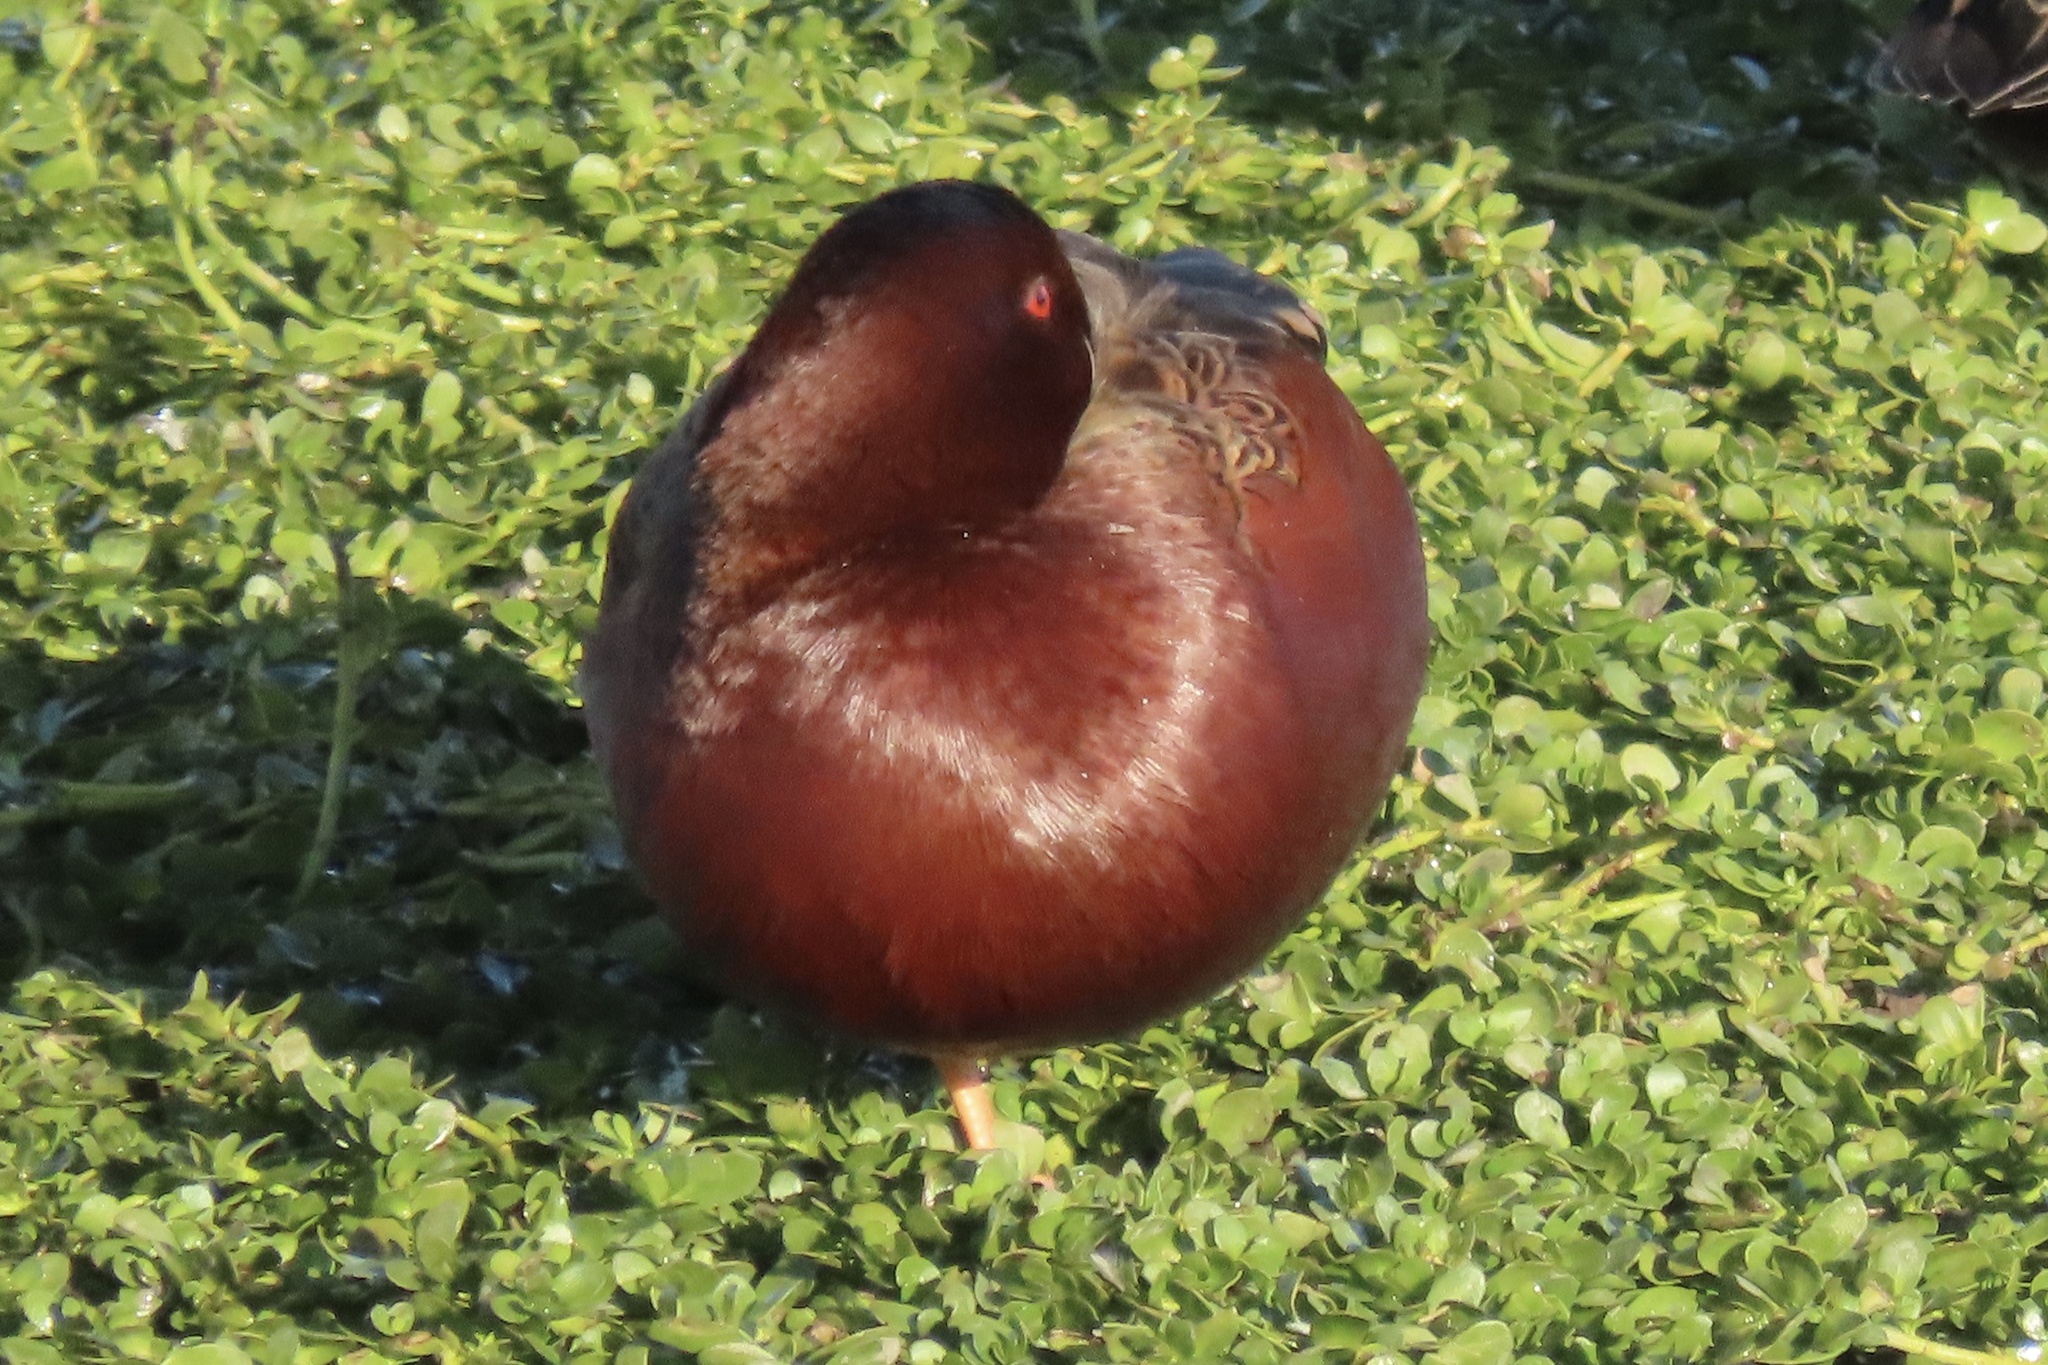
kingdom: Animalia
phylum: Chordata
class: Aves
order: Anseriformes
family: Anatidae
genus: Spatula
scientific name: Spatula cyanoptera
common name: Cinnamon teal
